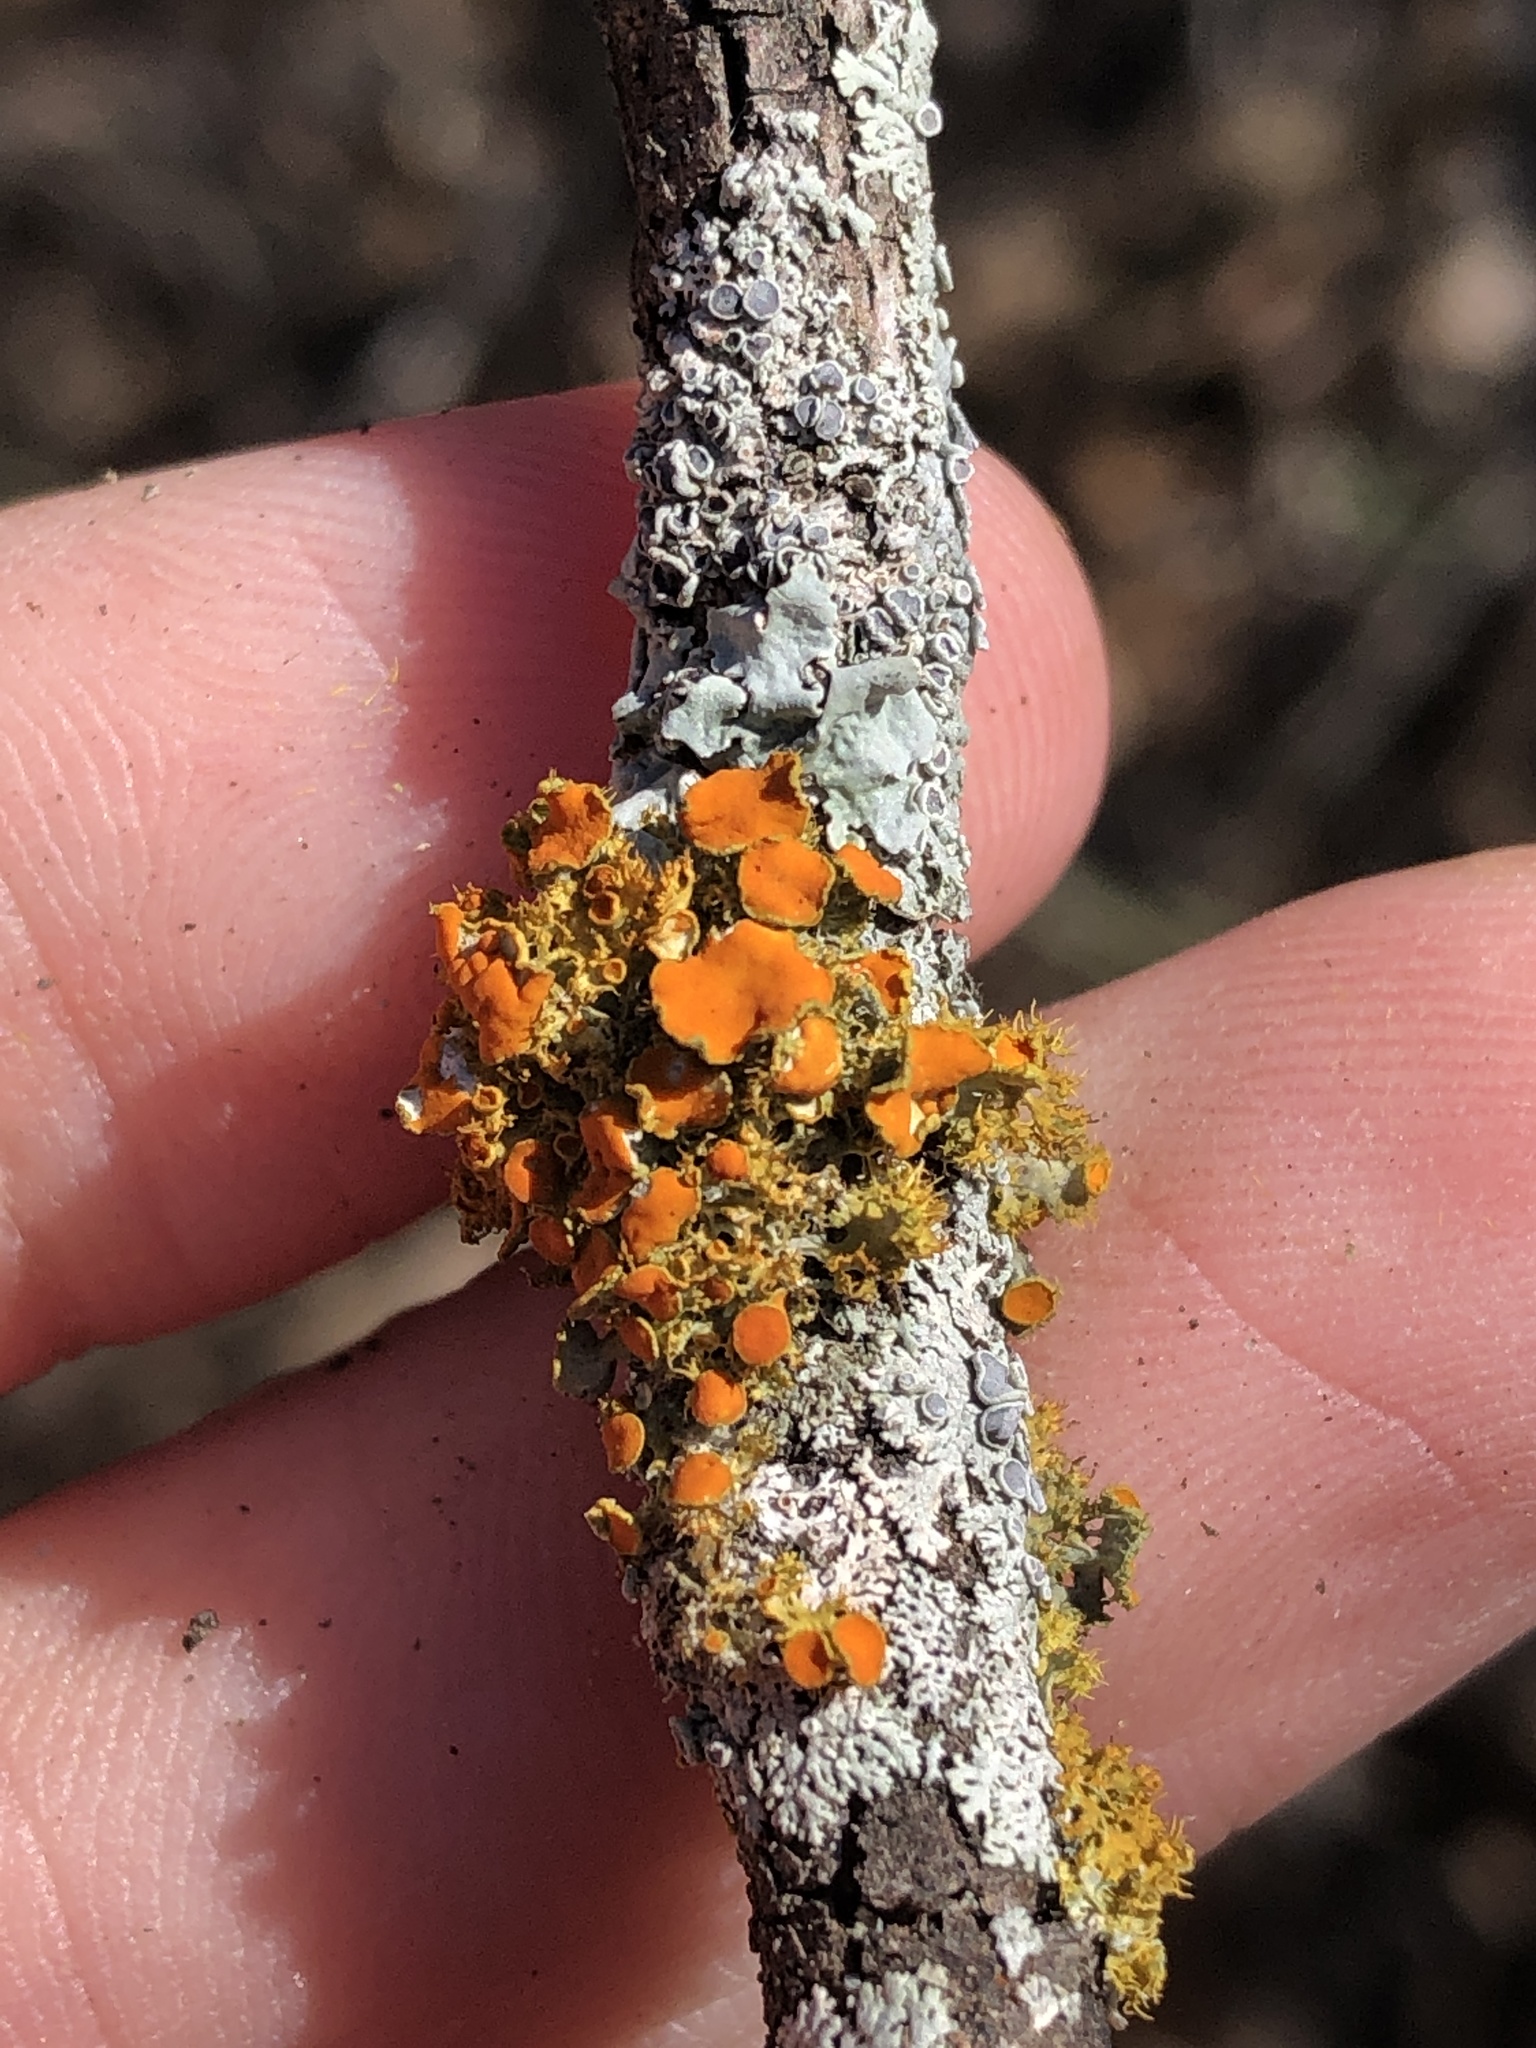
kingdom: Fungi
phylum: Ascomycota
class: Lecanoromycetes
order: Teloschistales
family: Teloschistaceae
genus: Niorma
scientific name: Niorma chrysophthalma
